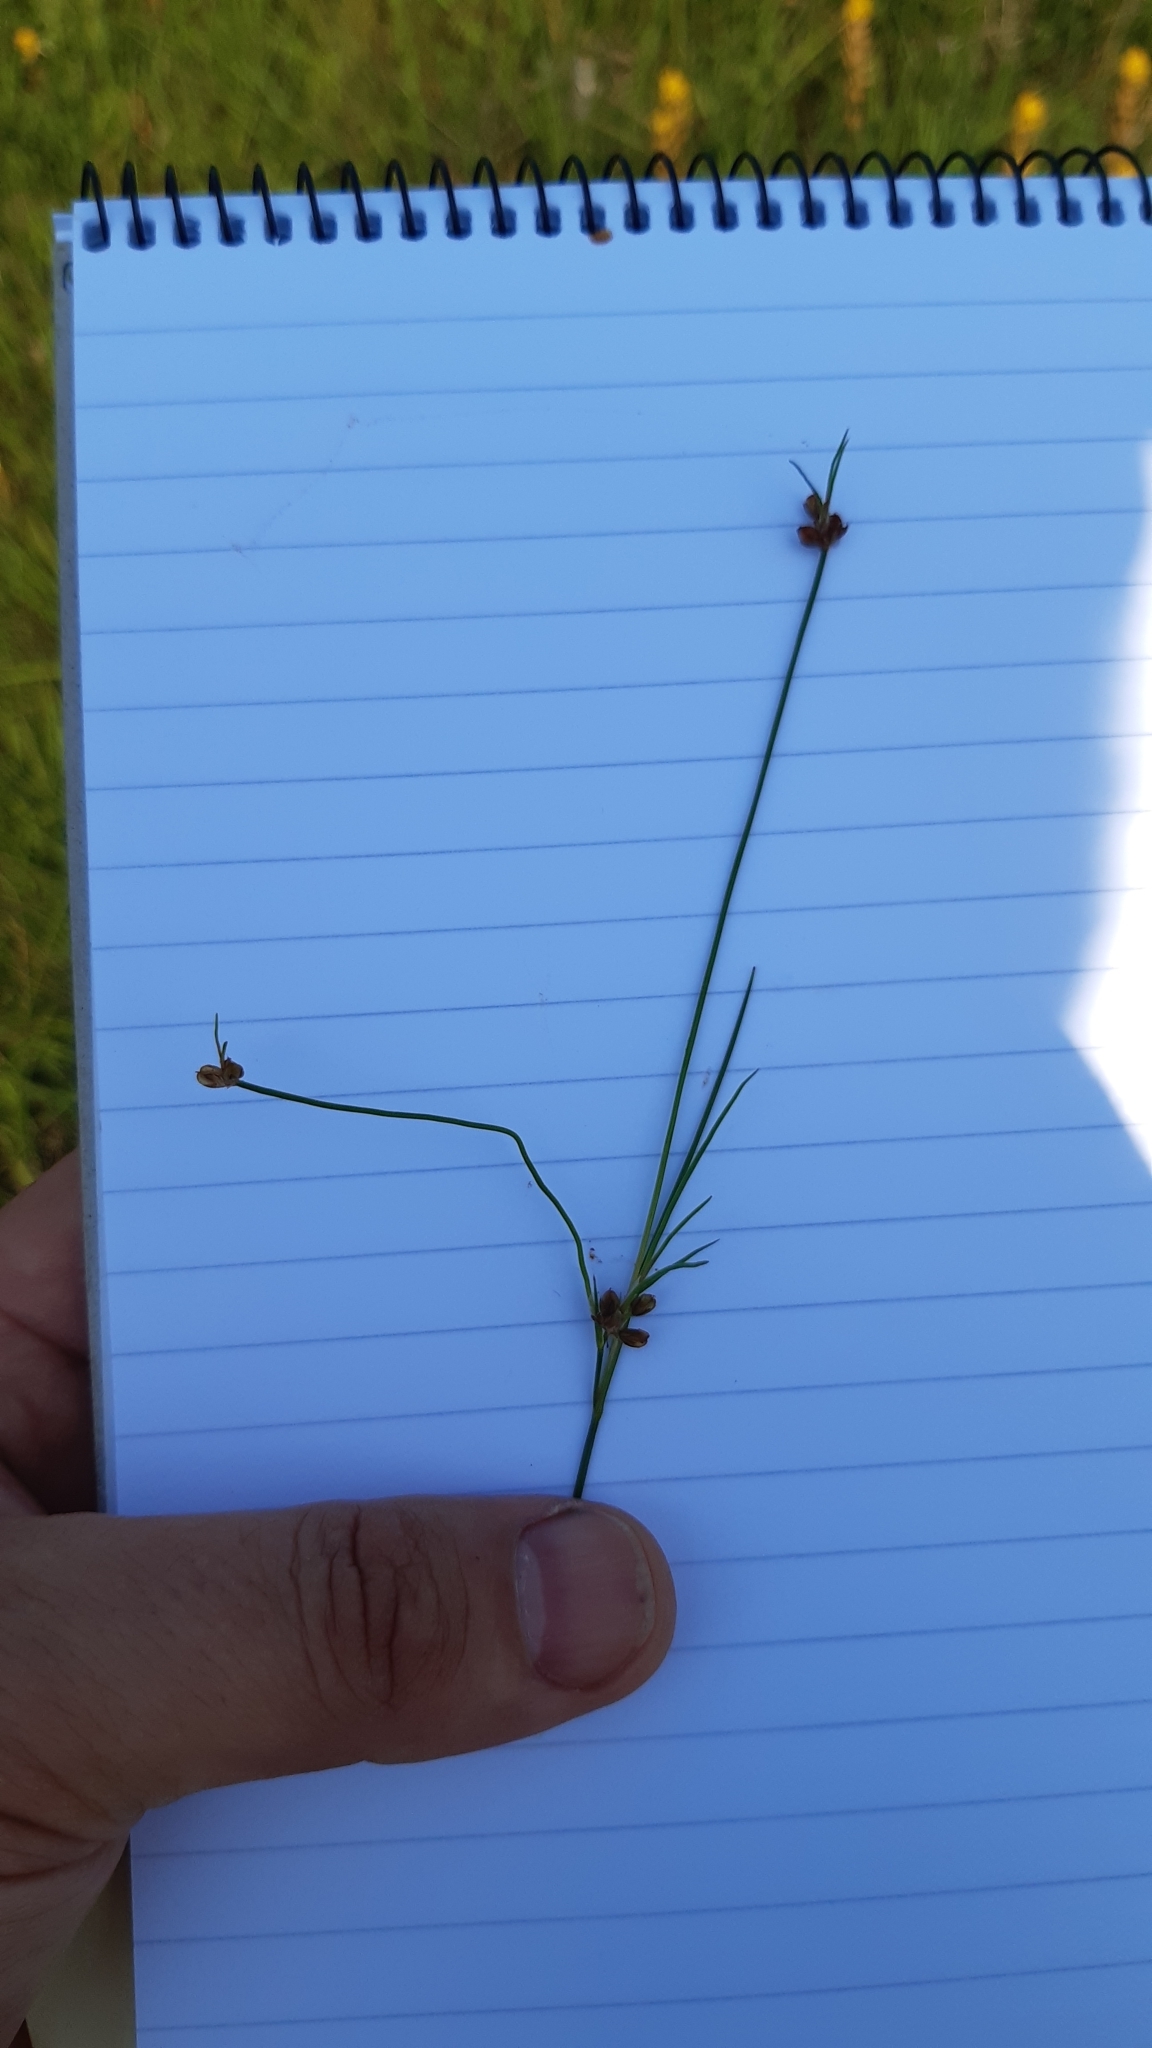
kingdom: Plantae
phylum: Tracheophyta
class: Liliopsida
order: Poales
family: Juncaceae
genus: Juncus
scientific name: Juncus bulbosus
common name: Bulbous rush
